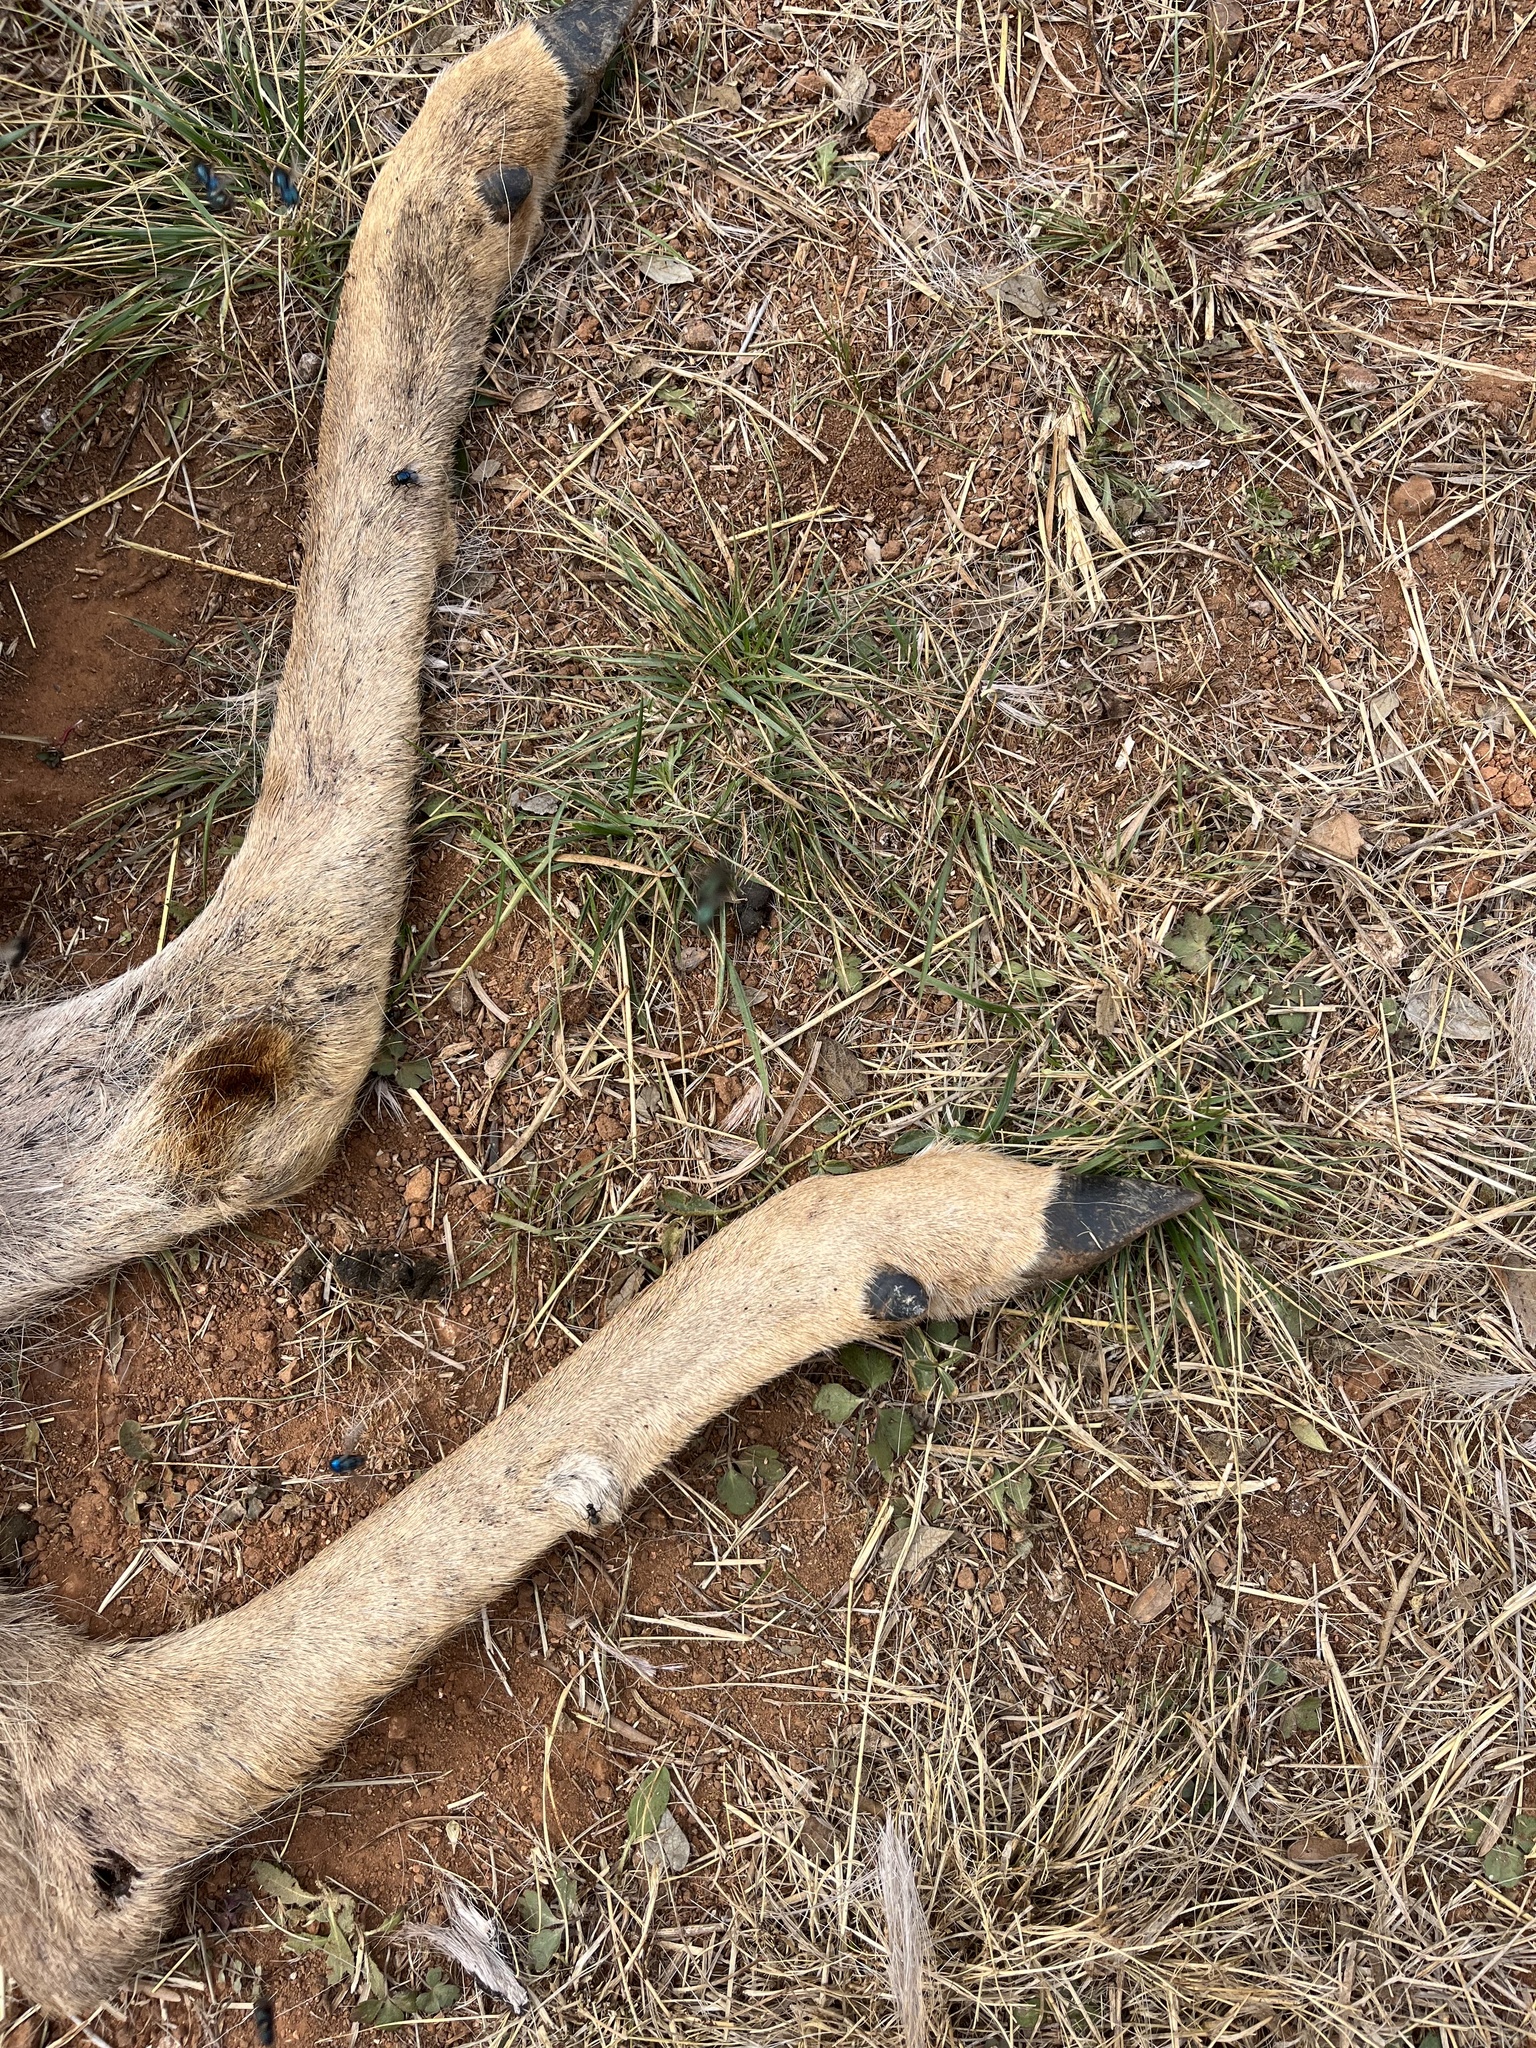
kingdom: Animalia
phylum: Chordata
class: Mammalia
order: Artiodactyla
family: Cervidae
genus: Odocoileus
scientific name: Odocoileus virginianus
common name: White-tailed deer
